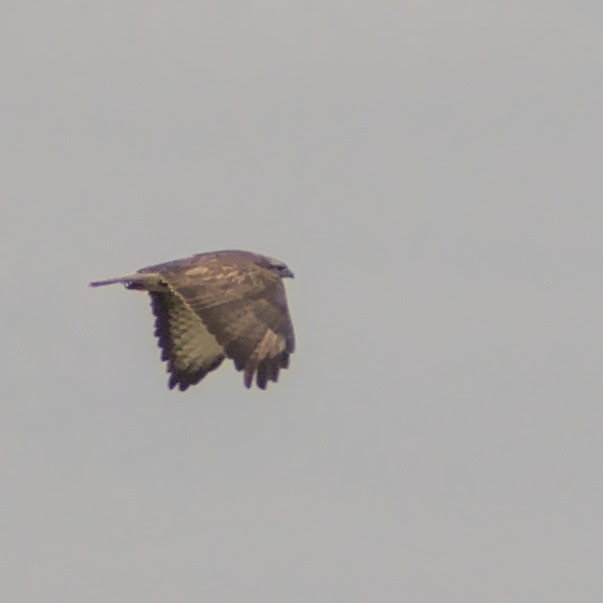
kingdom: Animalia
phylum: Chordata
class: Aves
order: Accipitriformes
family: Accipitridae
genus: Buteo
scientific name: Buteo buteo
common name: Common buzzard
